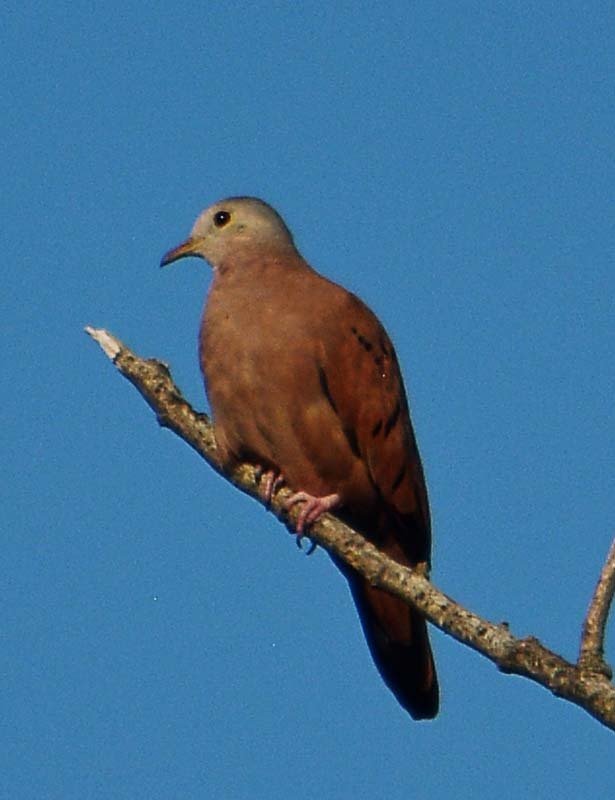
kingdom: Animalia
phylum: Chordata
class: Aves
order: Columbiformes
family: Columbidae
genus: Columbina
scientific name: Columbina talpacoti
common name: Ruddy ground dove
